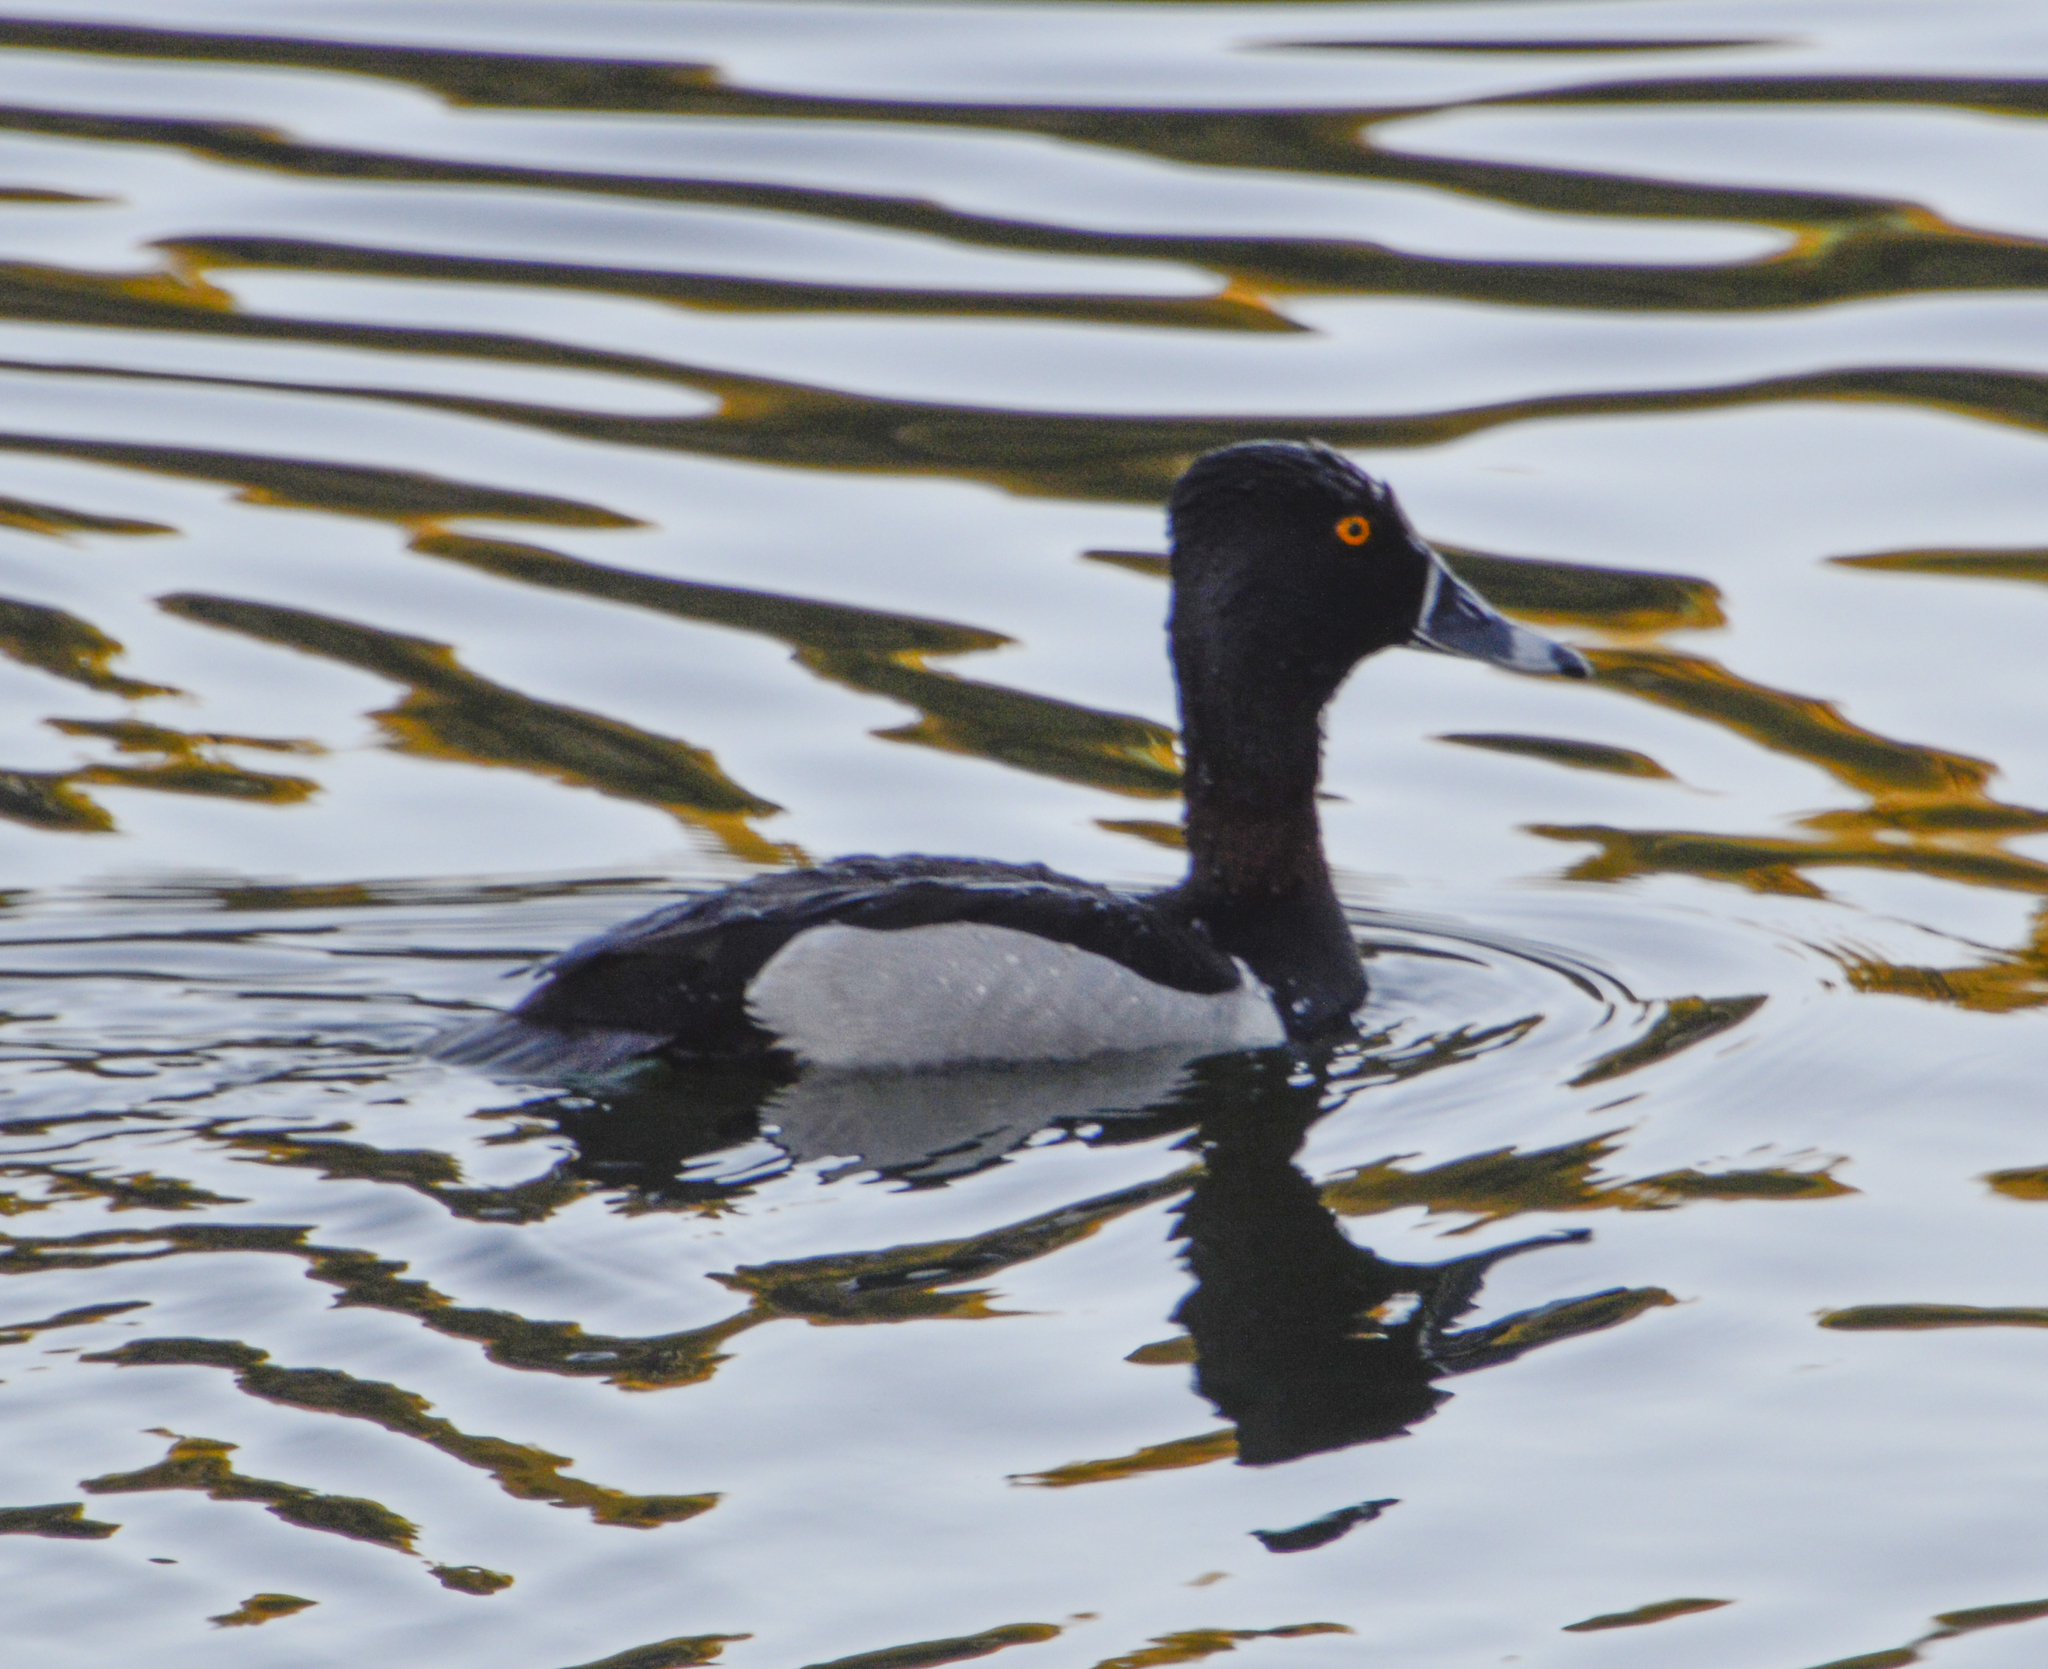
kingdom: Animalia
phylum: Chordata
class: Aves
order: Anseriformes
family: Anatidae
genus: Aythya
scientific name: Aythya collaris
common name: Ring-necked duck
